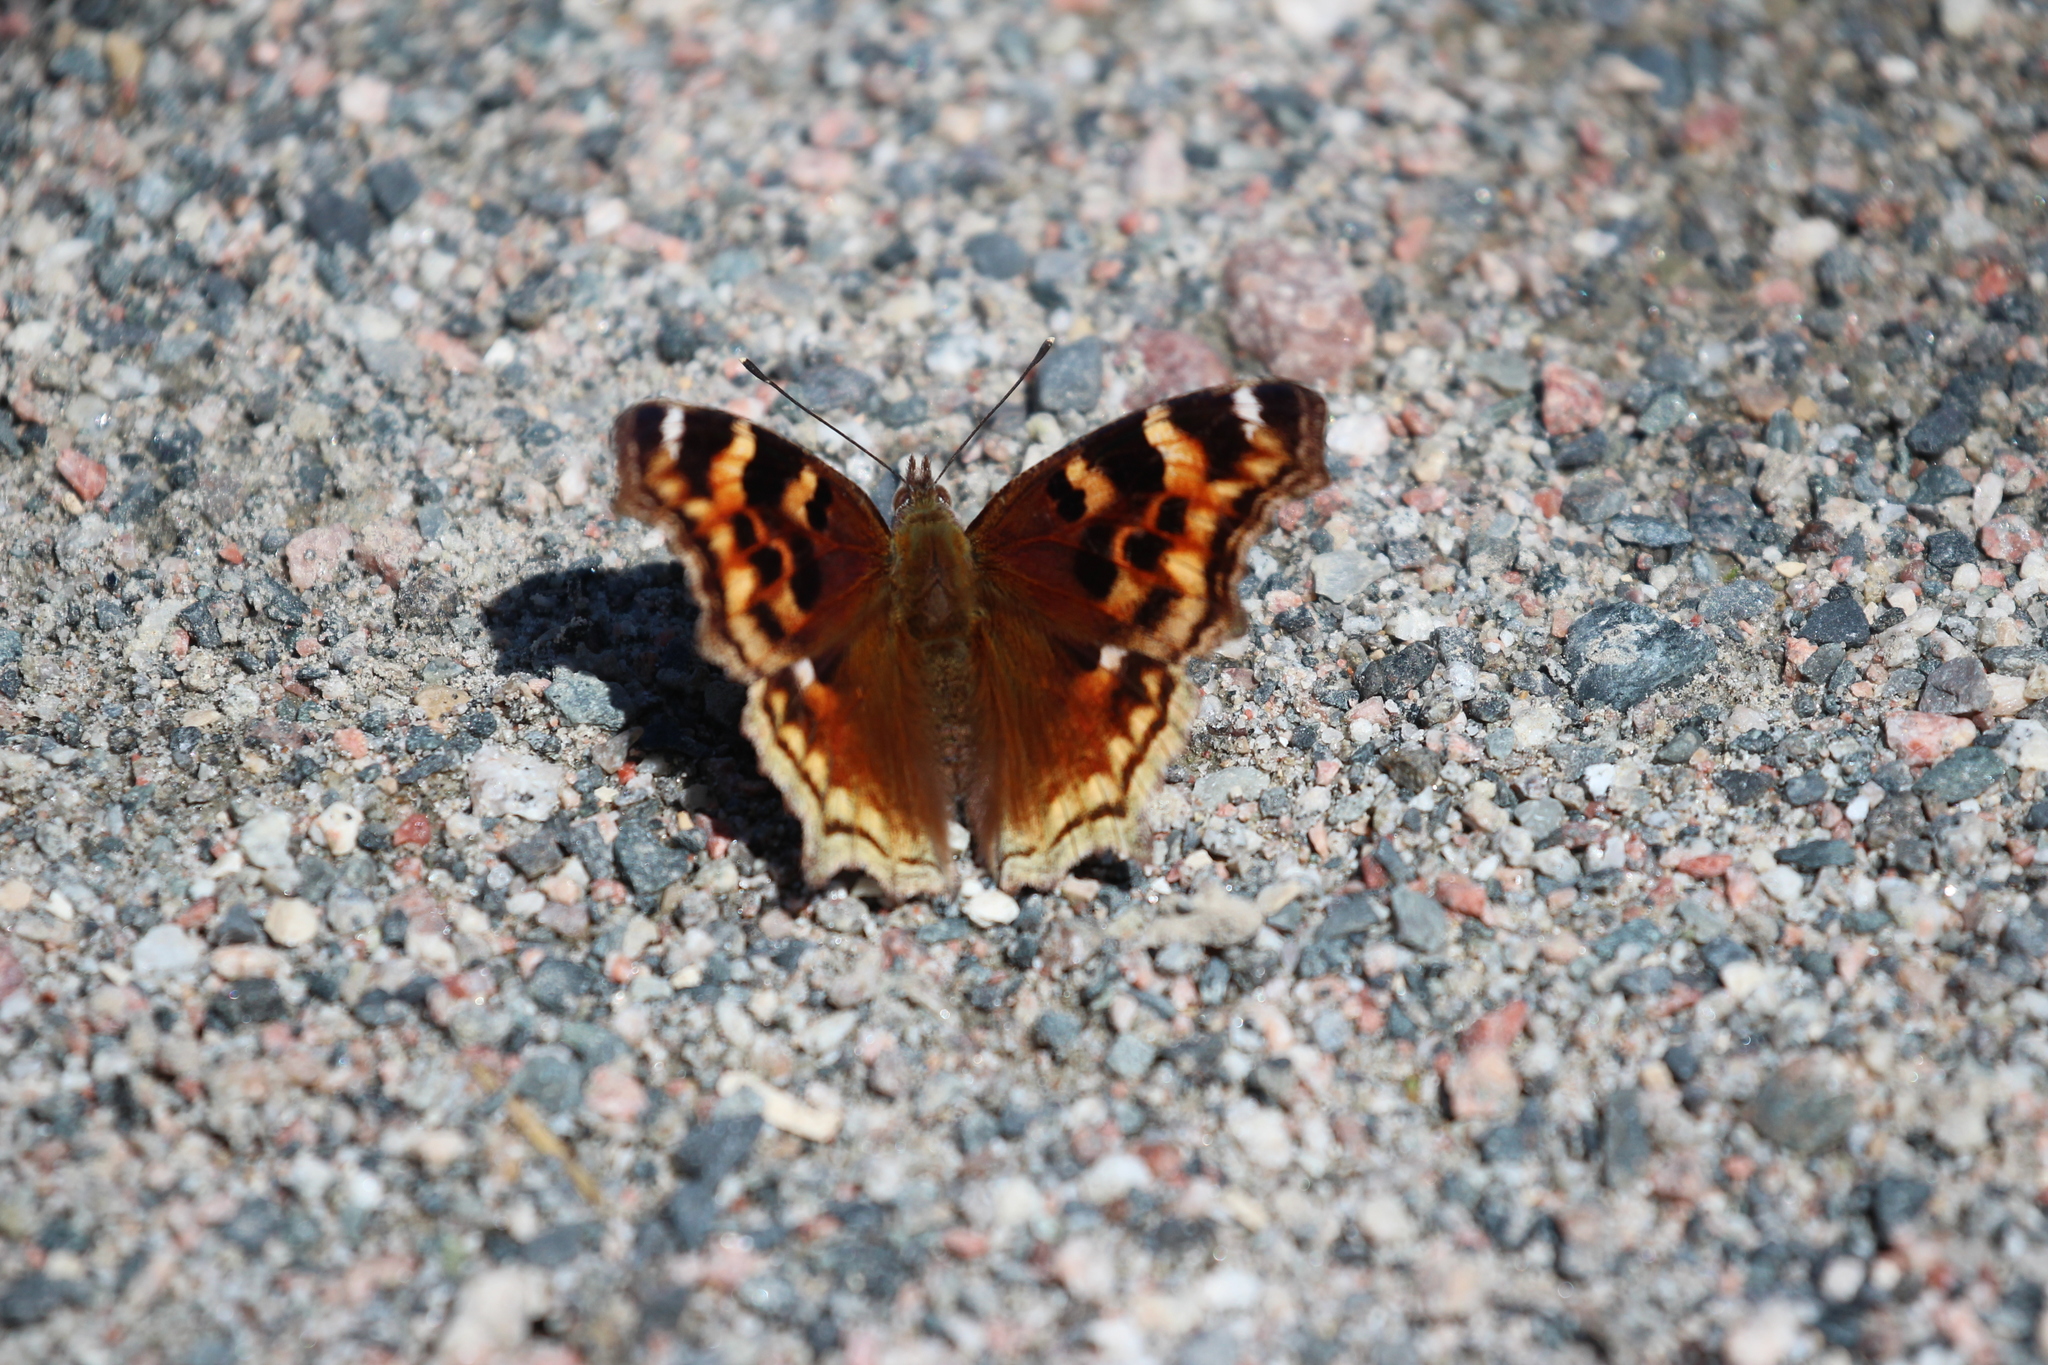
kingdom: Animalia
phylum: Arthropoda
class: Insecta
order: Lepidoptera
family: Nymphalidae
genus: Polygonia
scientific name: Polygonia vaualbum
